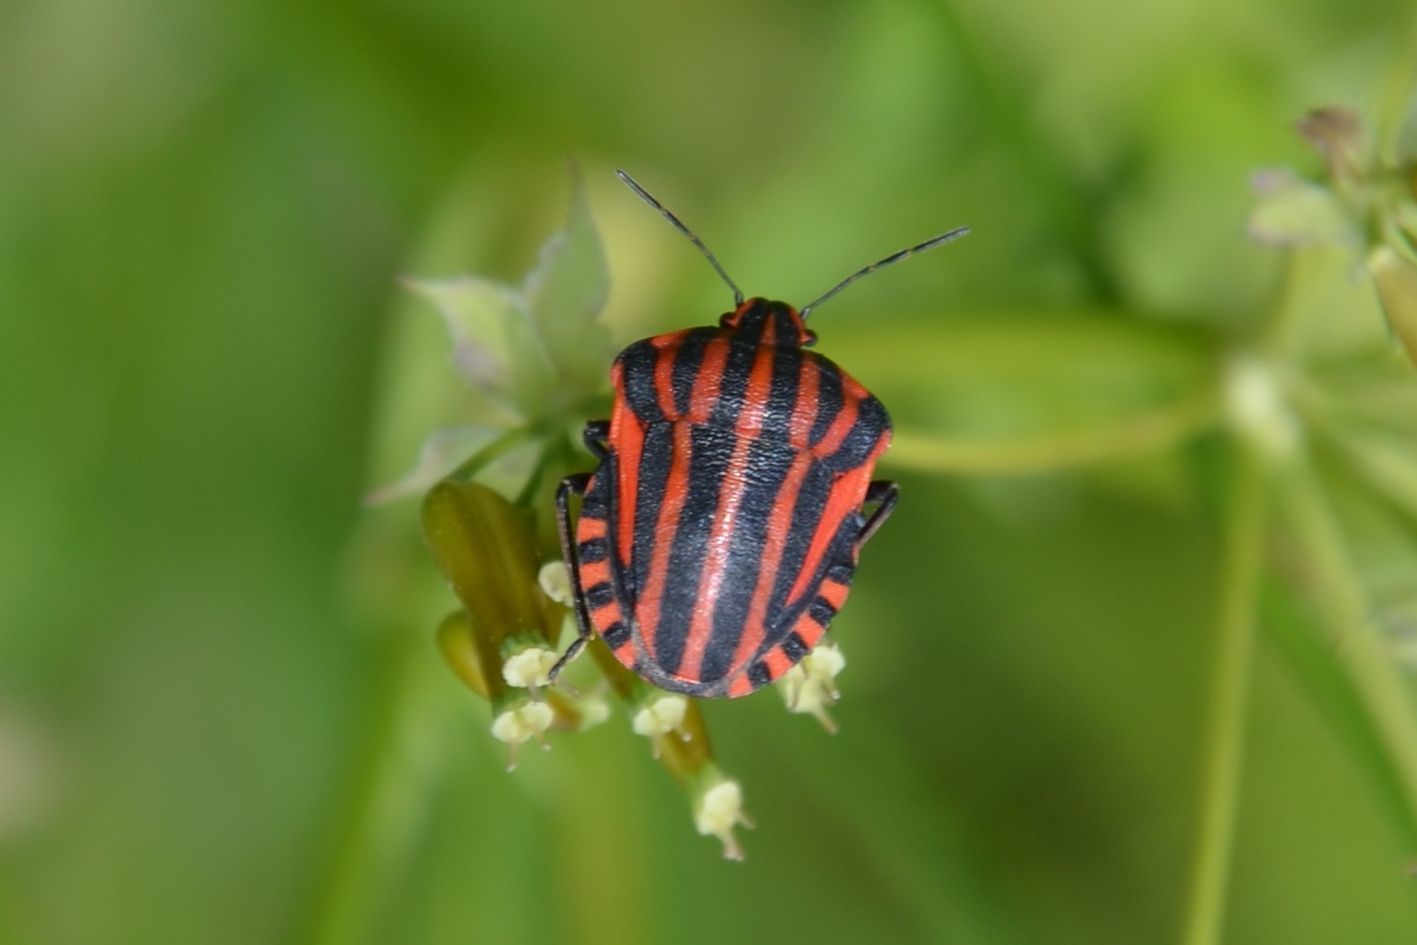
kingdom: Animalia
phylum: Arthropoda
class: Insecta
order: Hemiptera
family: Pentatomidae
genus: Graphosoma
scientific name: Graphosoma italicum
